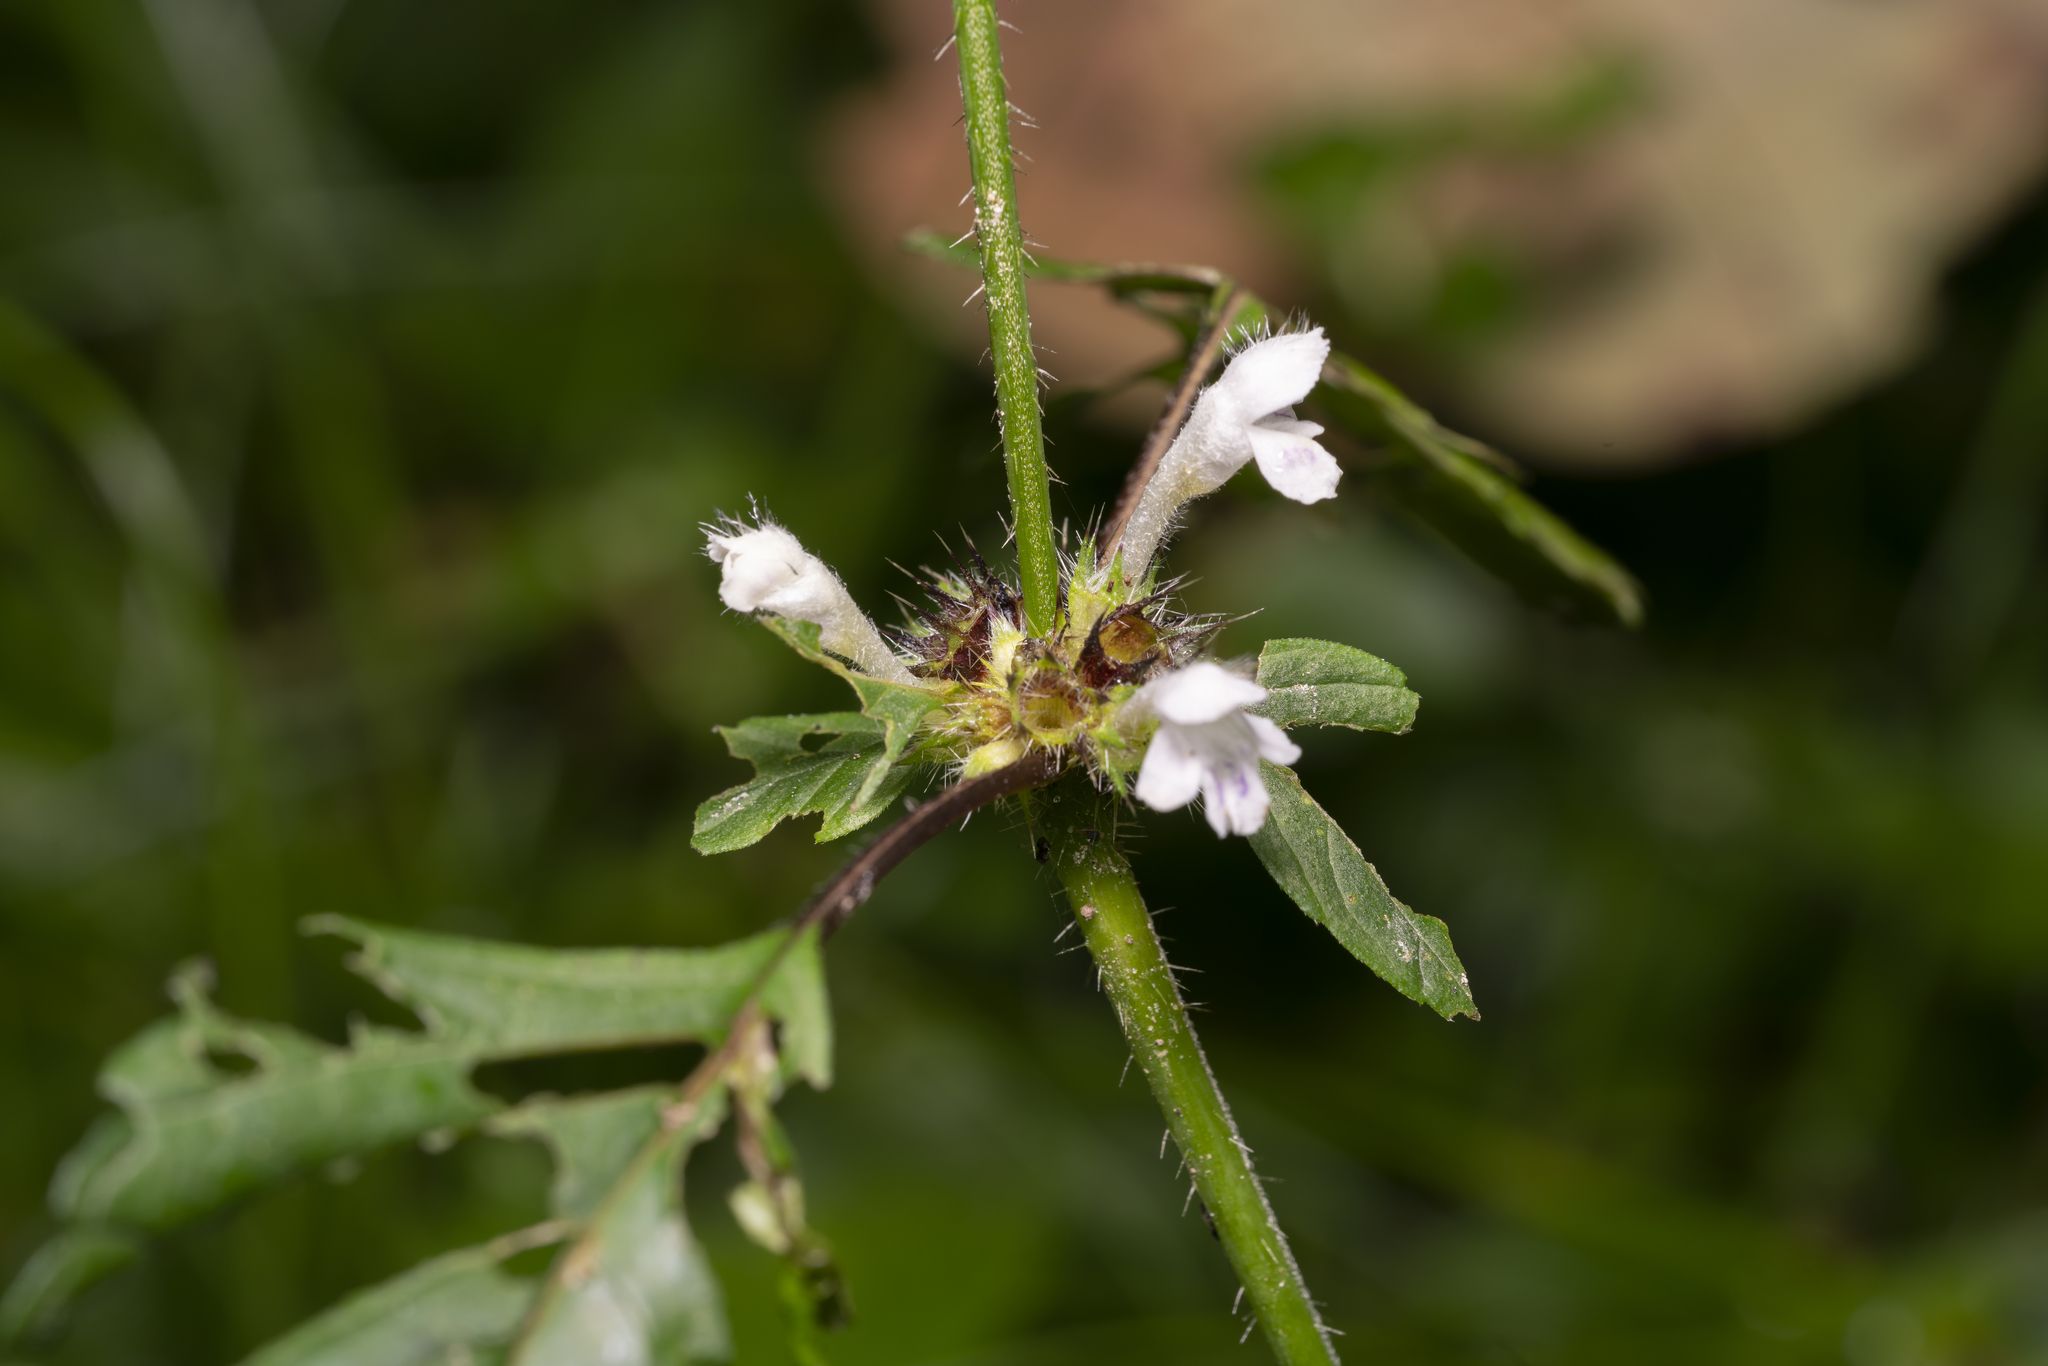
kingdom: Plantae
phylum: Tracheophyta
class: Magnoliopsida
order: Lamiales
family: Lamiaceae
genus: Galeopsis
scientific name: Galeopsis tetrahit
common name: Common hemp-nettle
